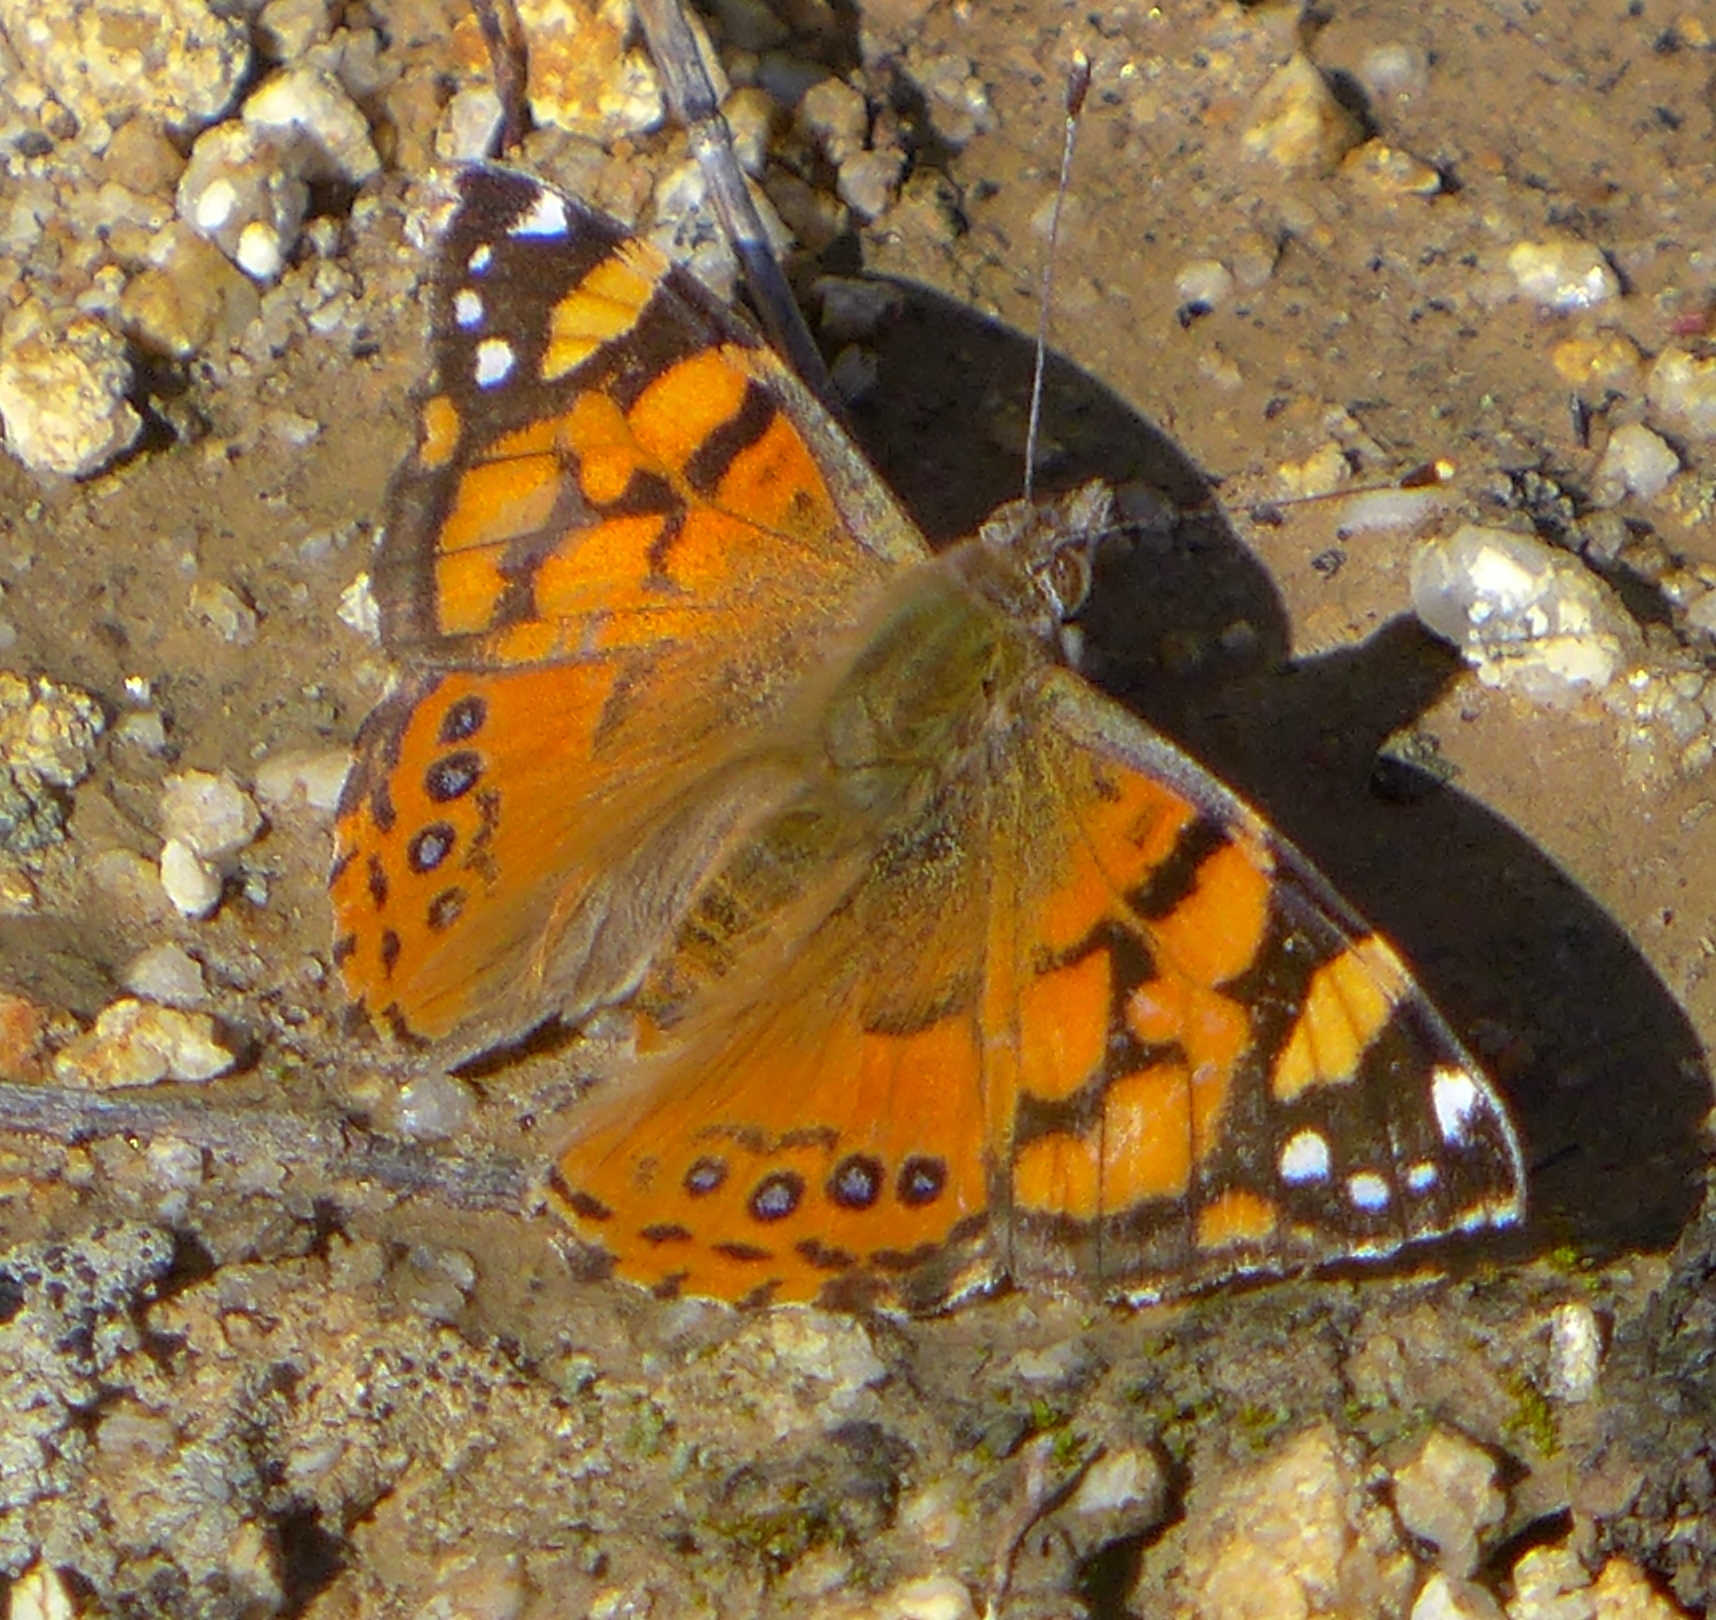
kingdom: Animalia
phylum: Arthropoda
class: Insecta
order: Lepidoptera
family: Nymphalidae
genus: Vanessa
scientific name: Vanessa annabella
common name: West coast lady
